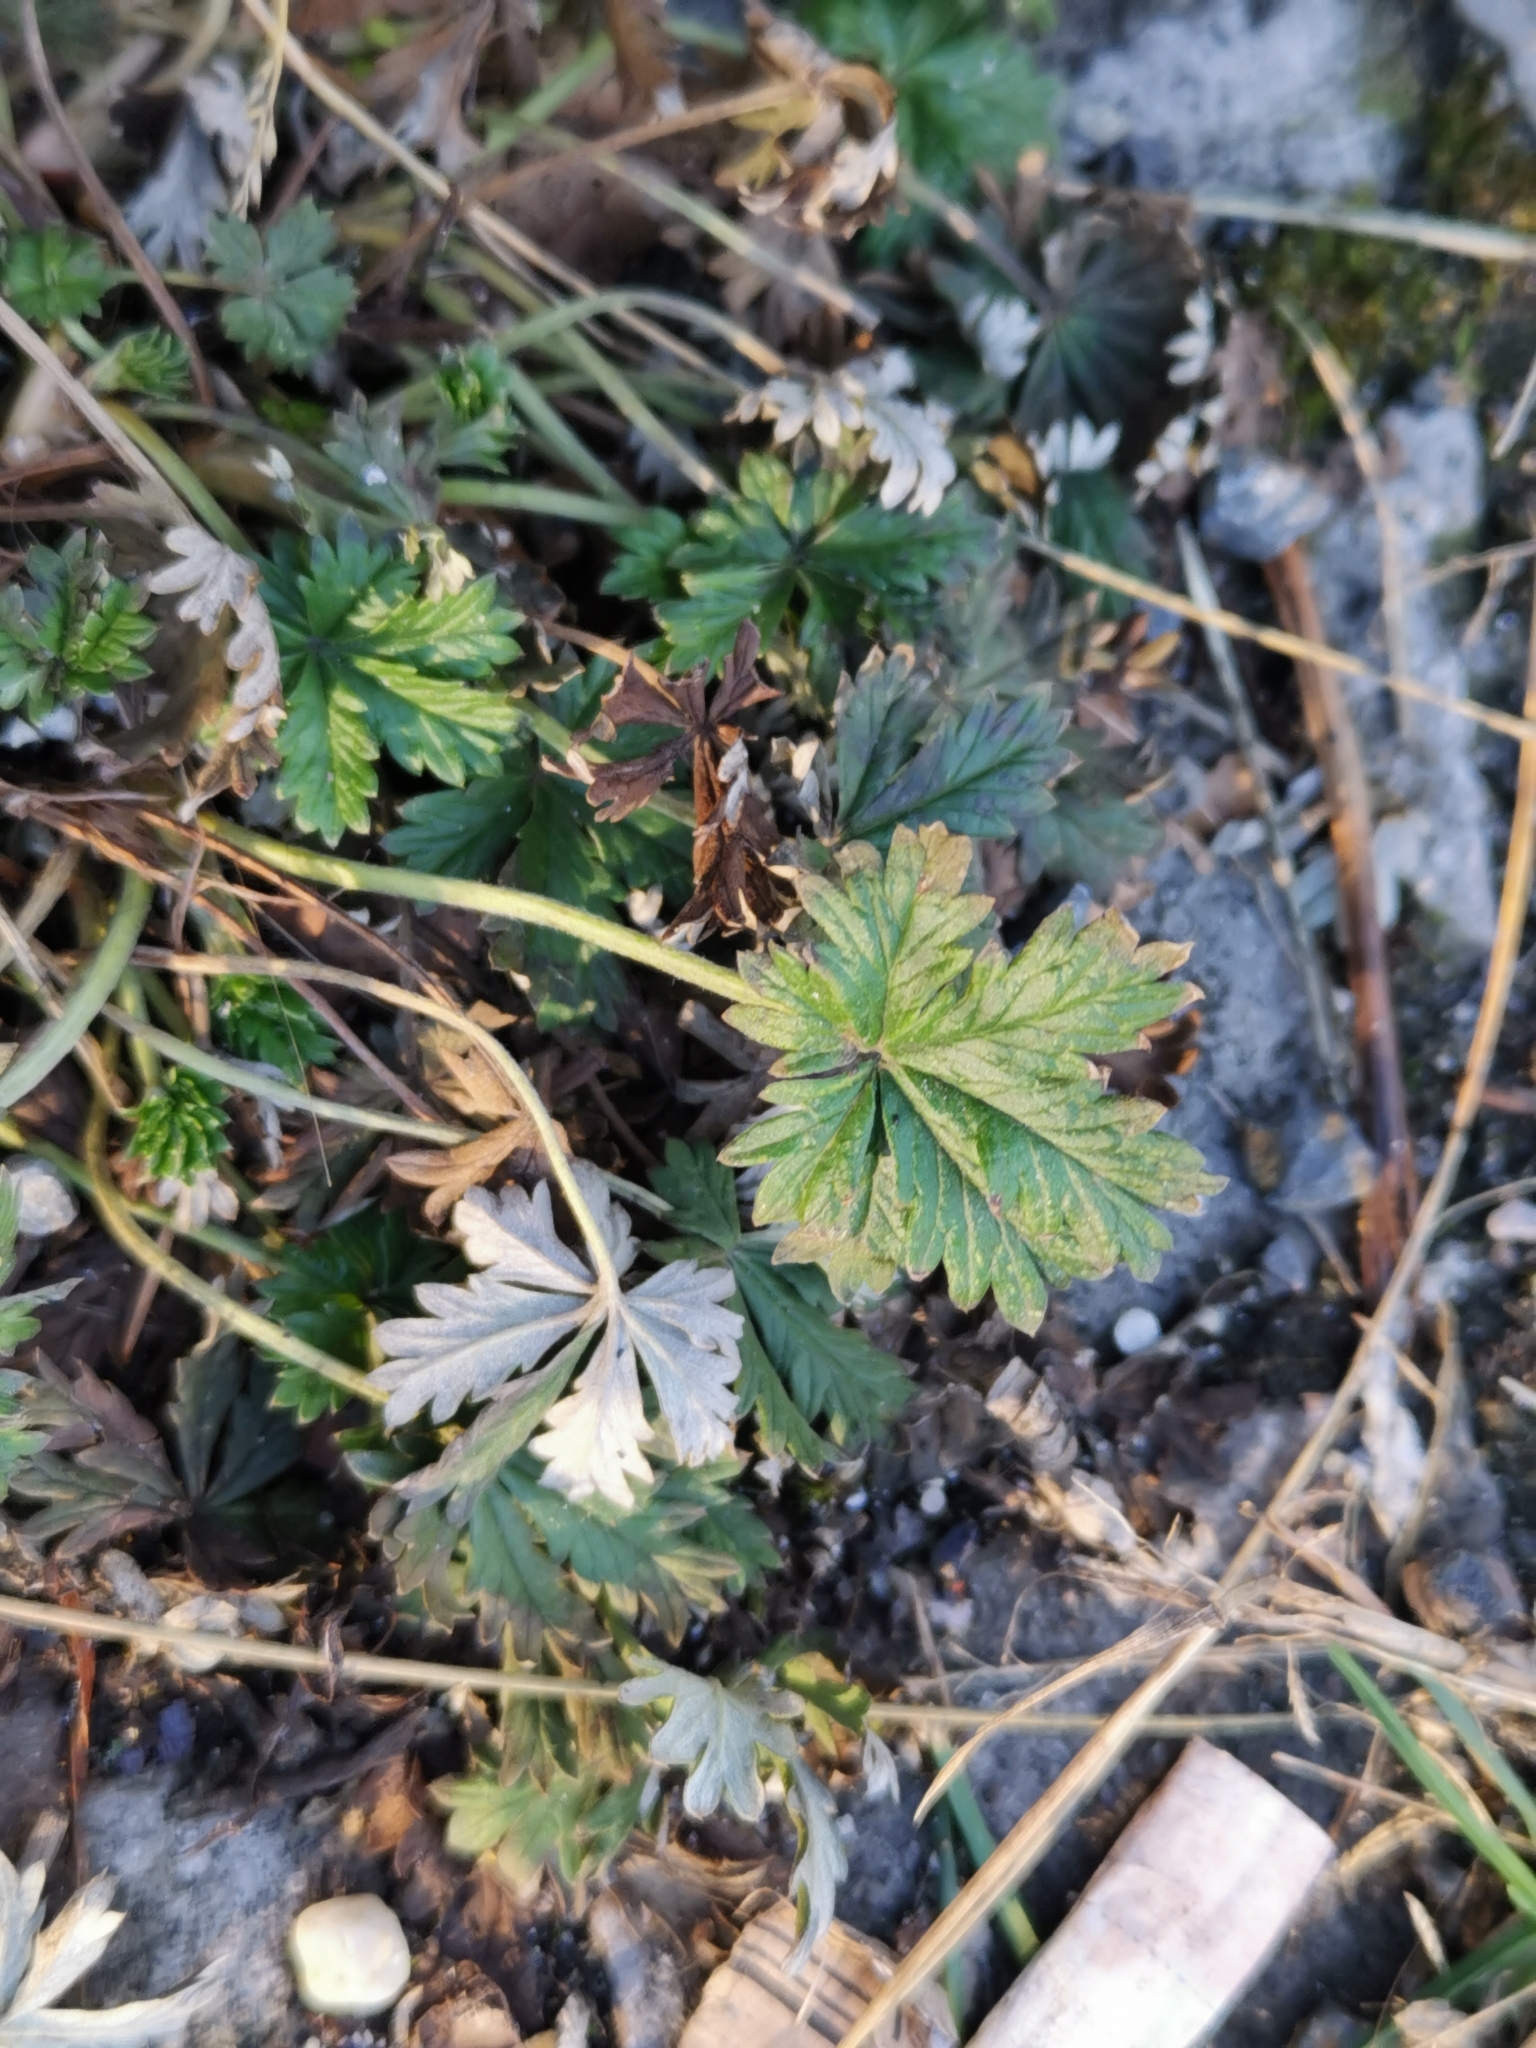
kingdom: Plantae
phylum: Tracheophyta
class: Magnoliopsida
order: Rosales
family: Rosaceae
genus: Potentilla
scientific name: Potentilla argentea
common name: Hoary cinquefoil
